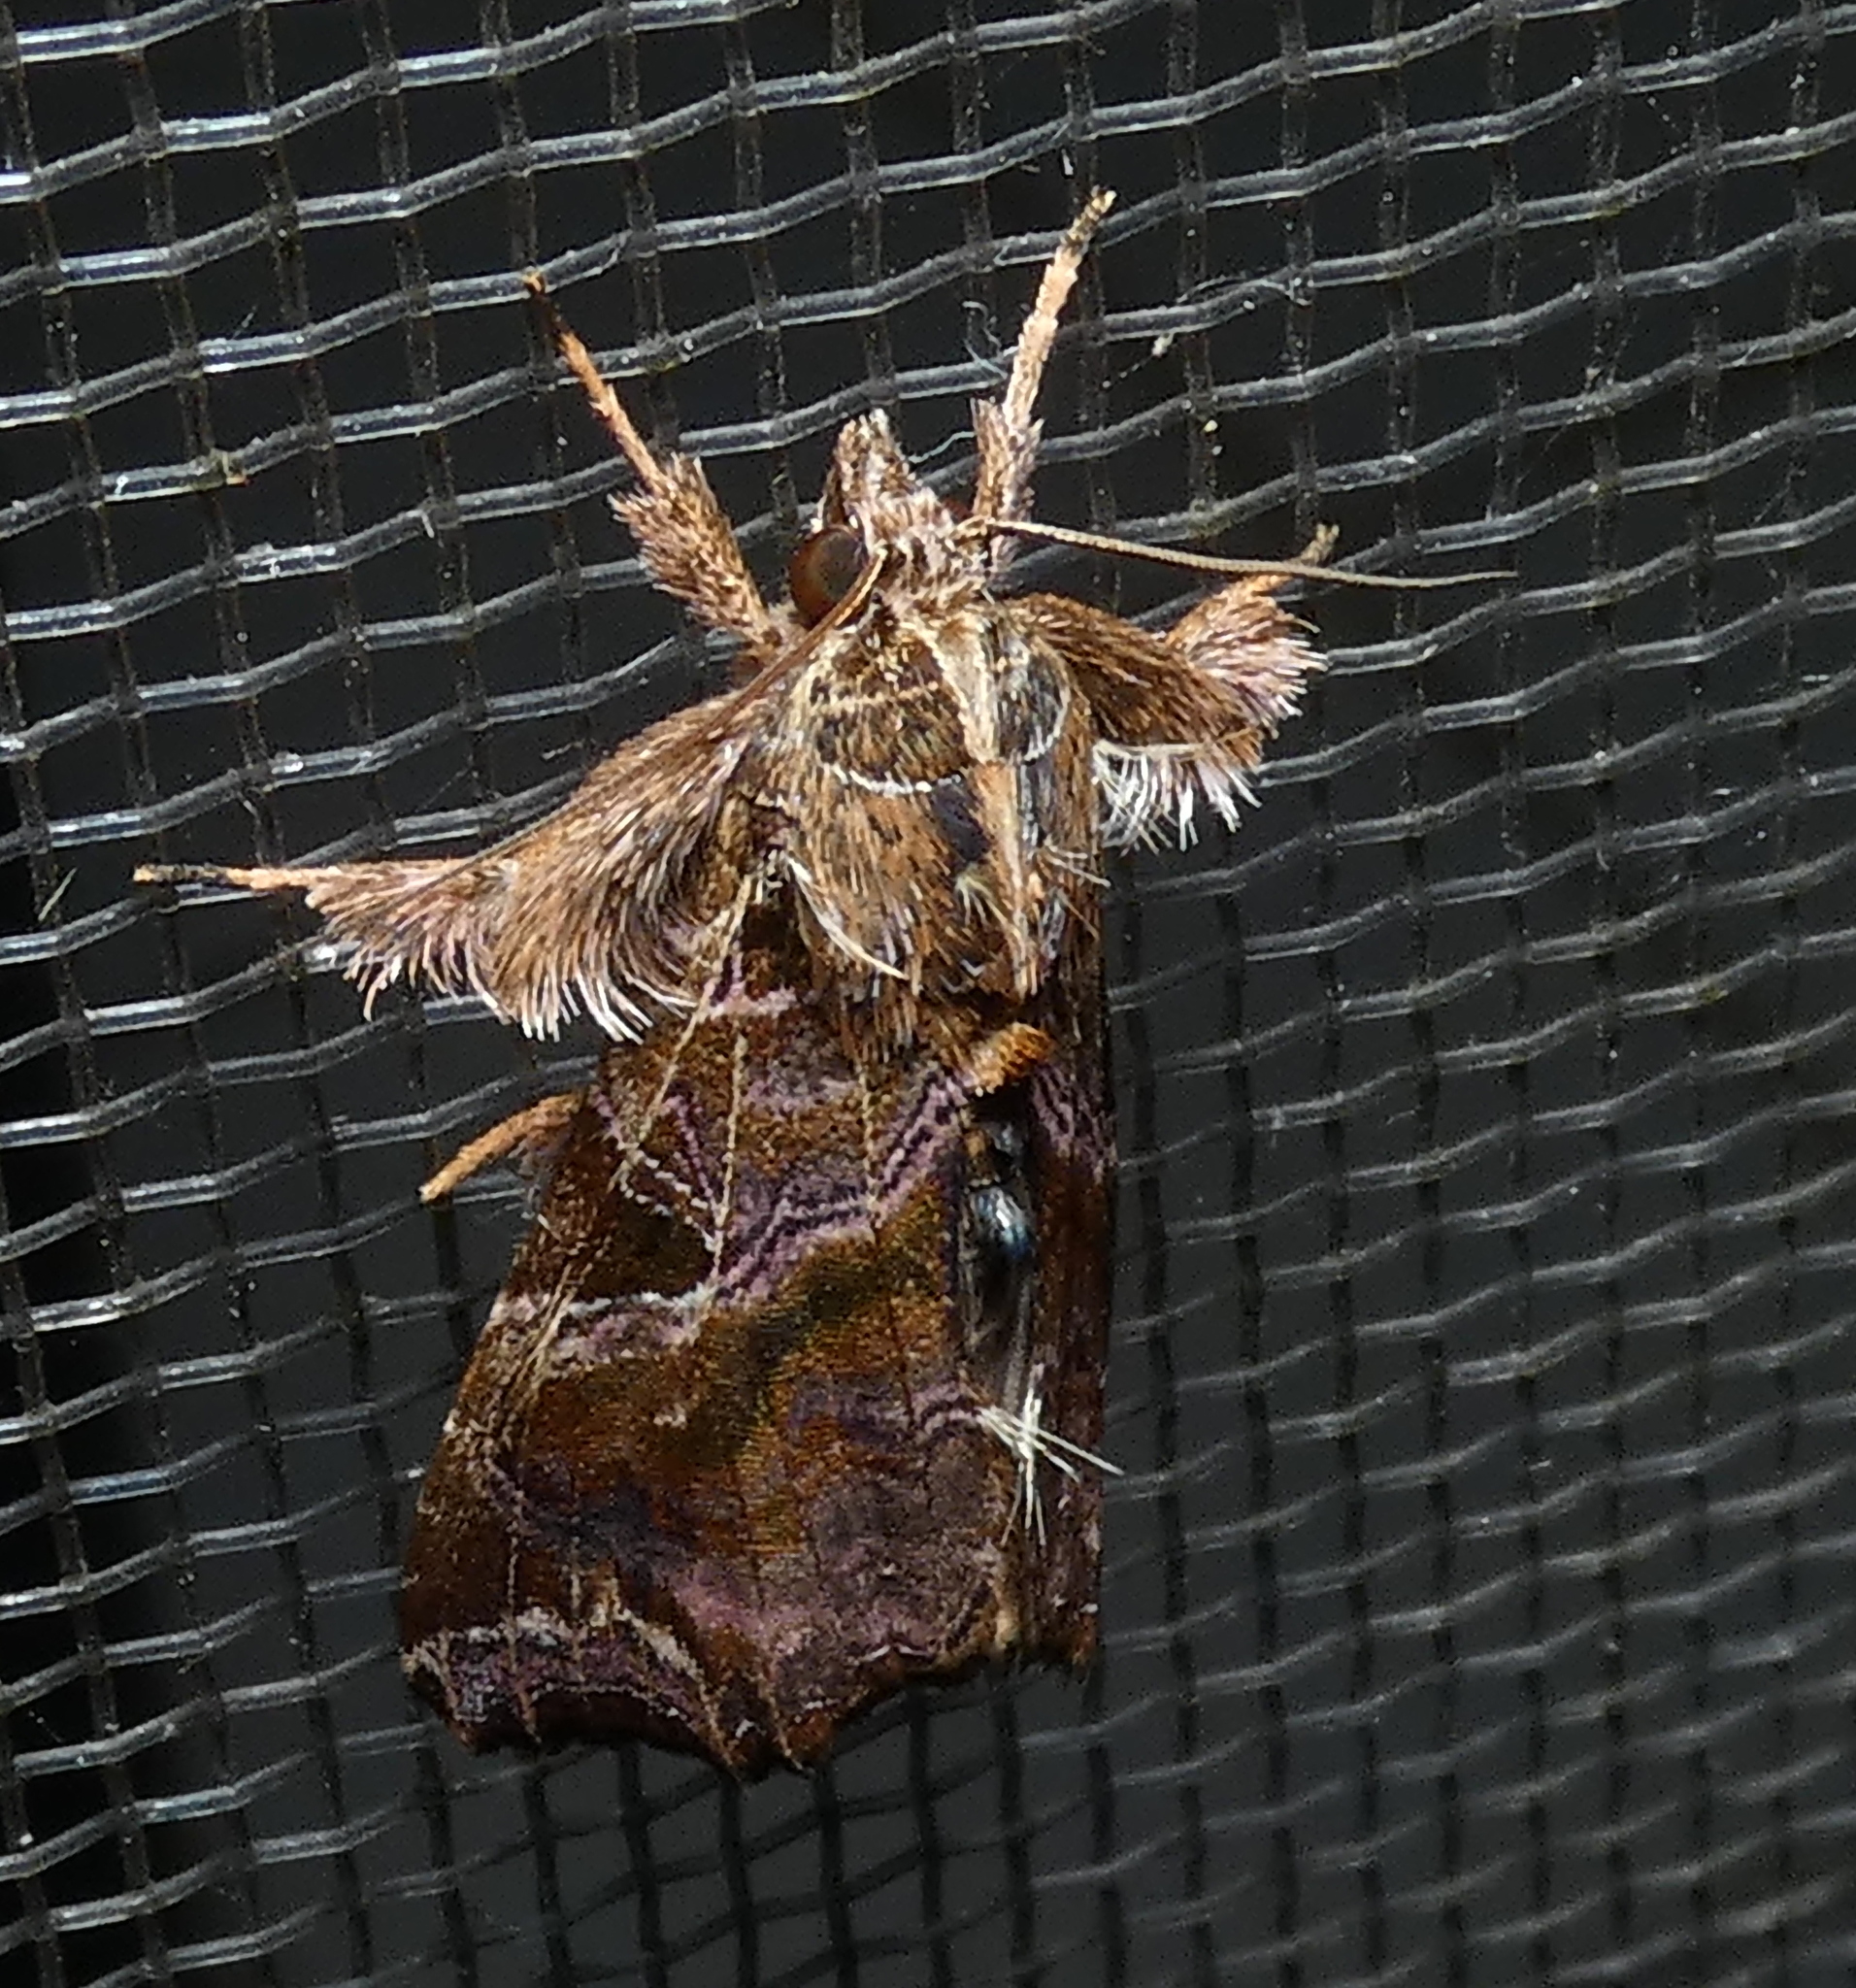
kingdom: Animalia
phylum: Arthropoda
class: Insecta
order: Lepidoptera
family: Noctuidae
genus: Callopistria
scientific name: Callopistria floridensis
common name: Florida fern moth
